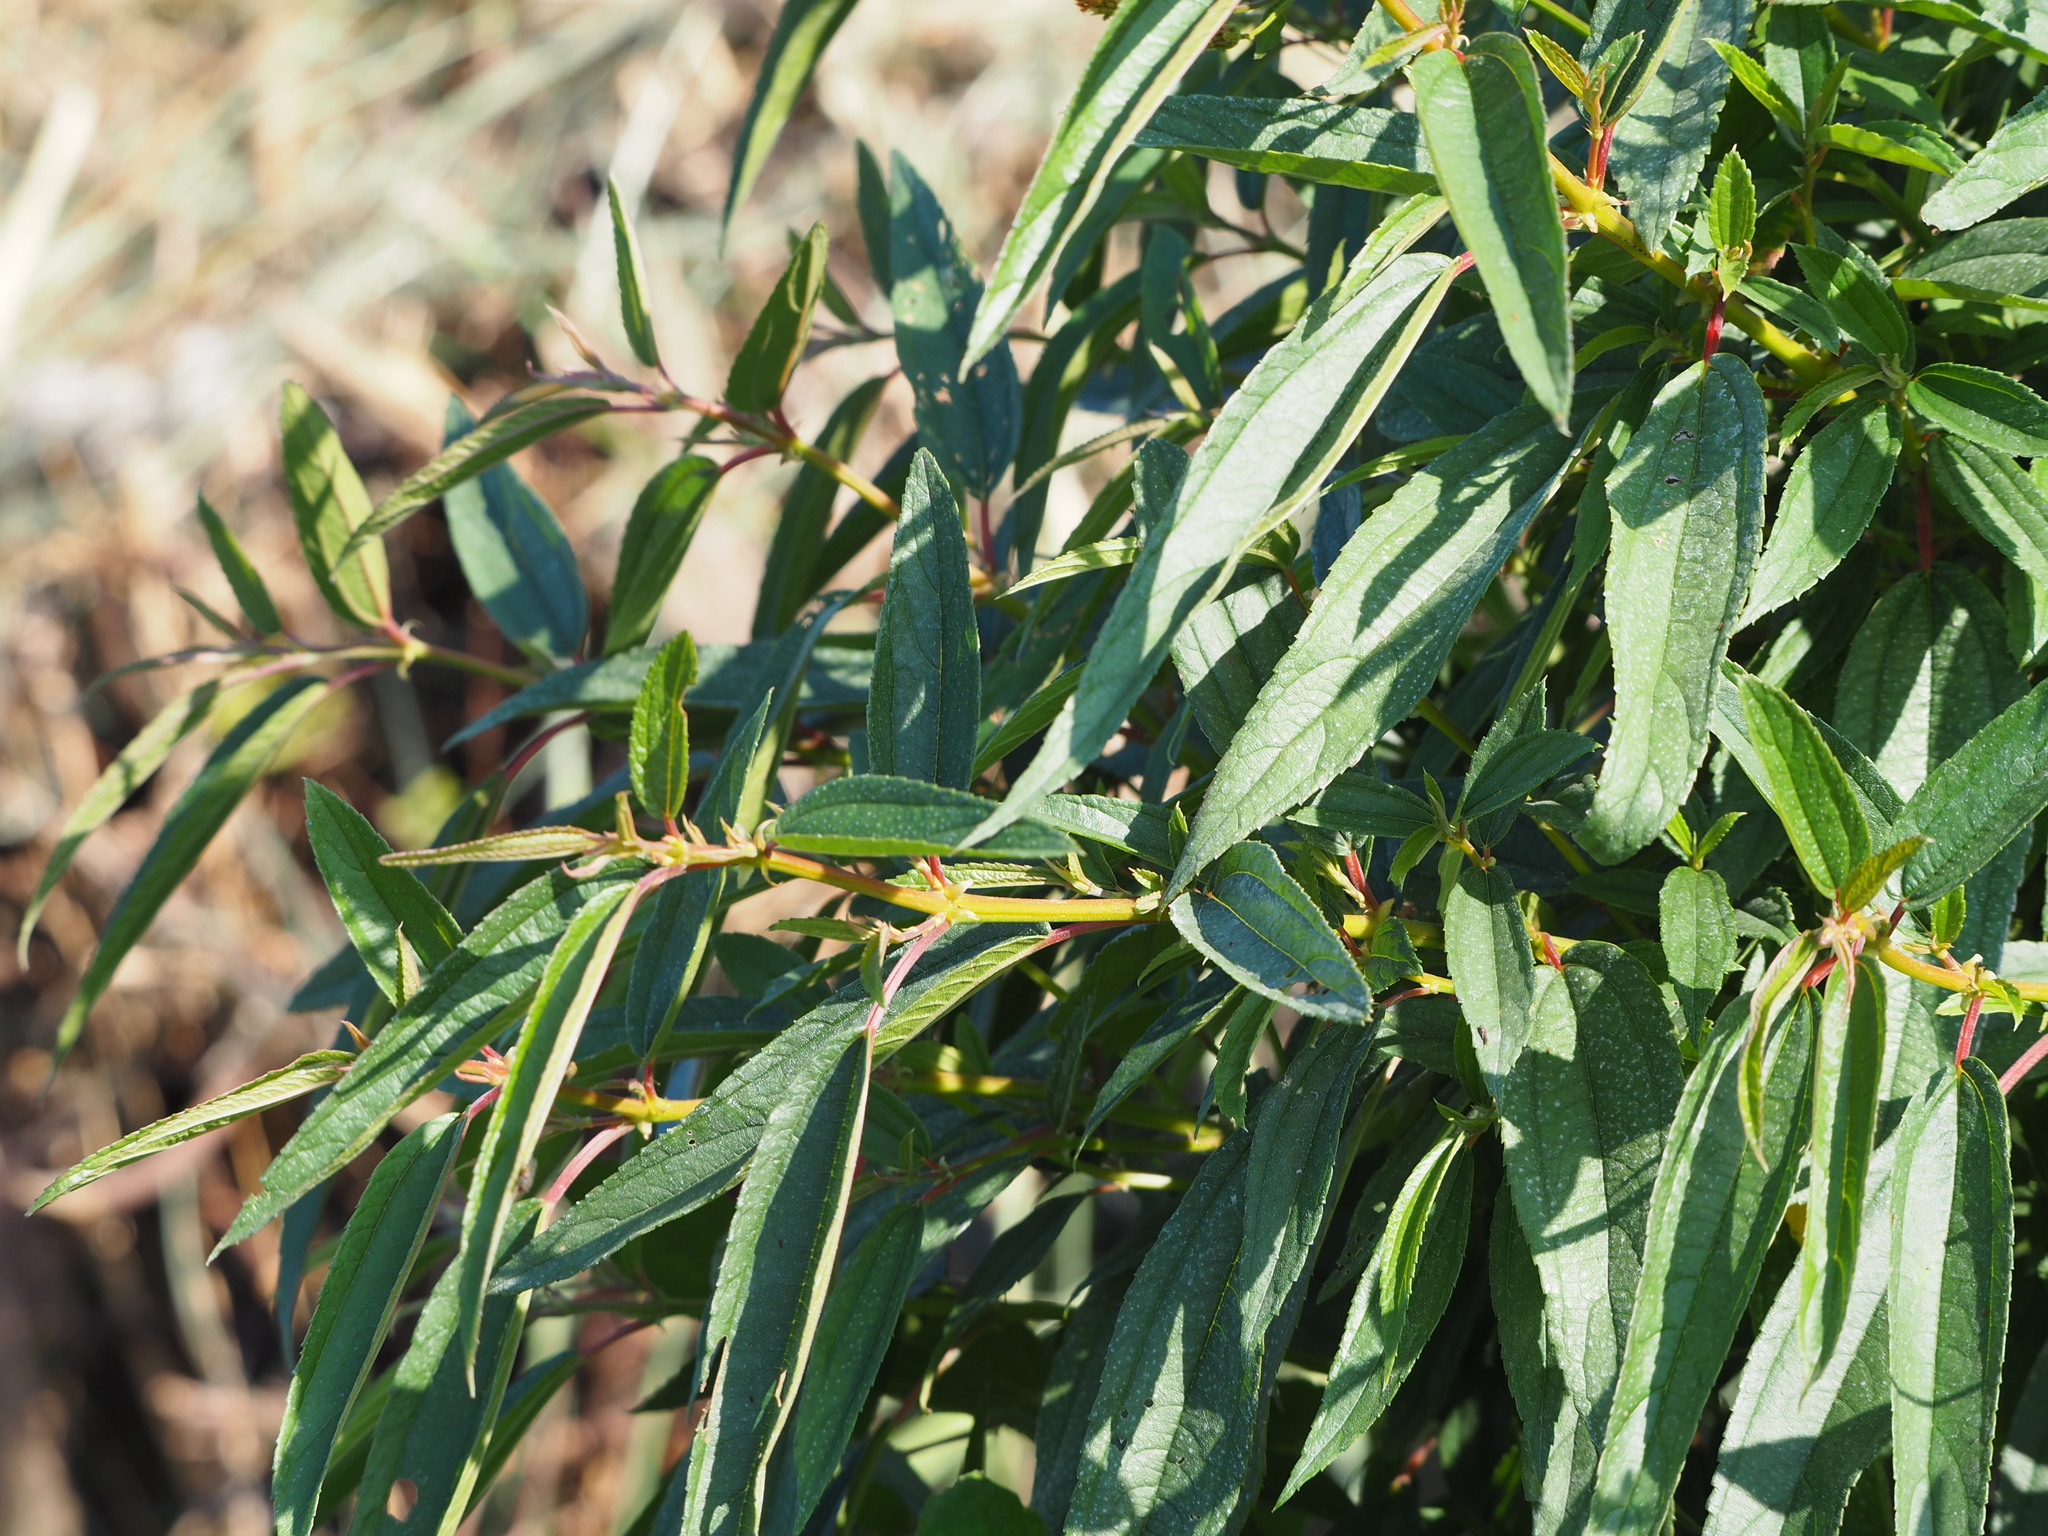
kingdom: Plantae
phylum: Tracheophyta
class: Magnoliopsida
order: Rosales
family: Urticaceae
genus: Boehmeria
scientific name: Boehmeria densiflora
